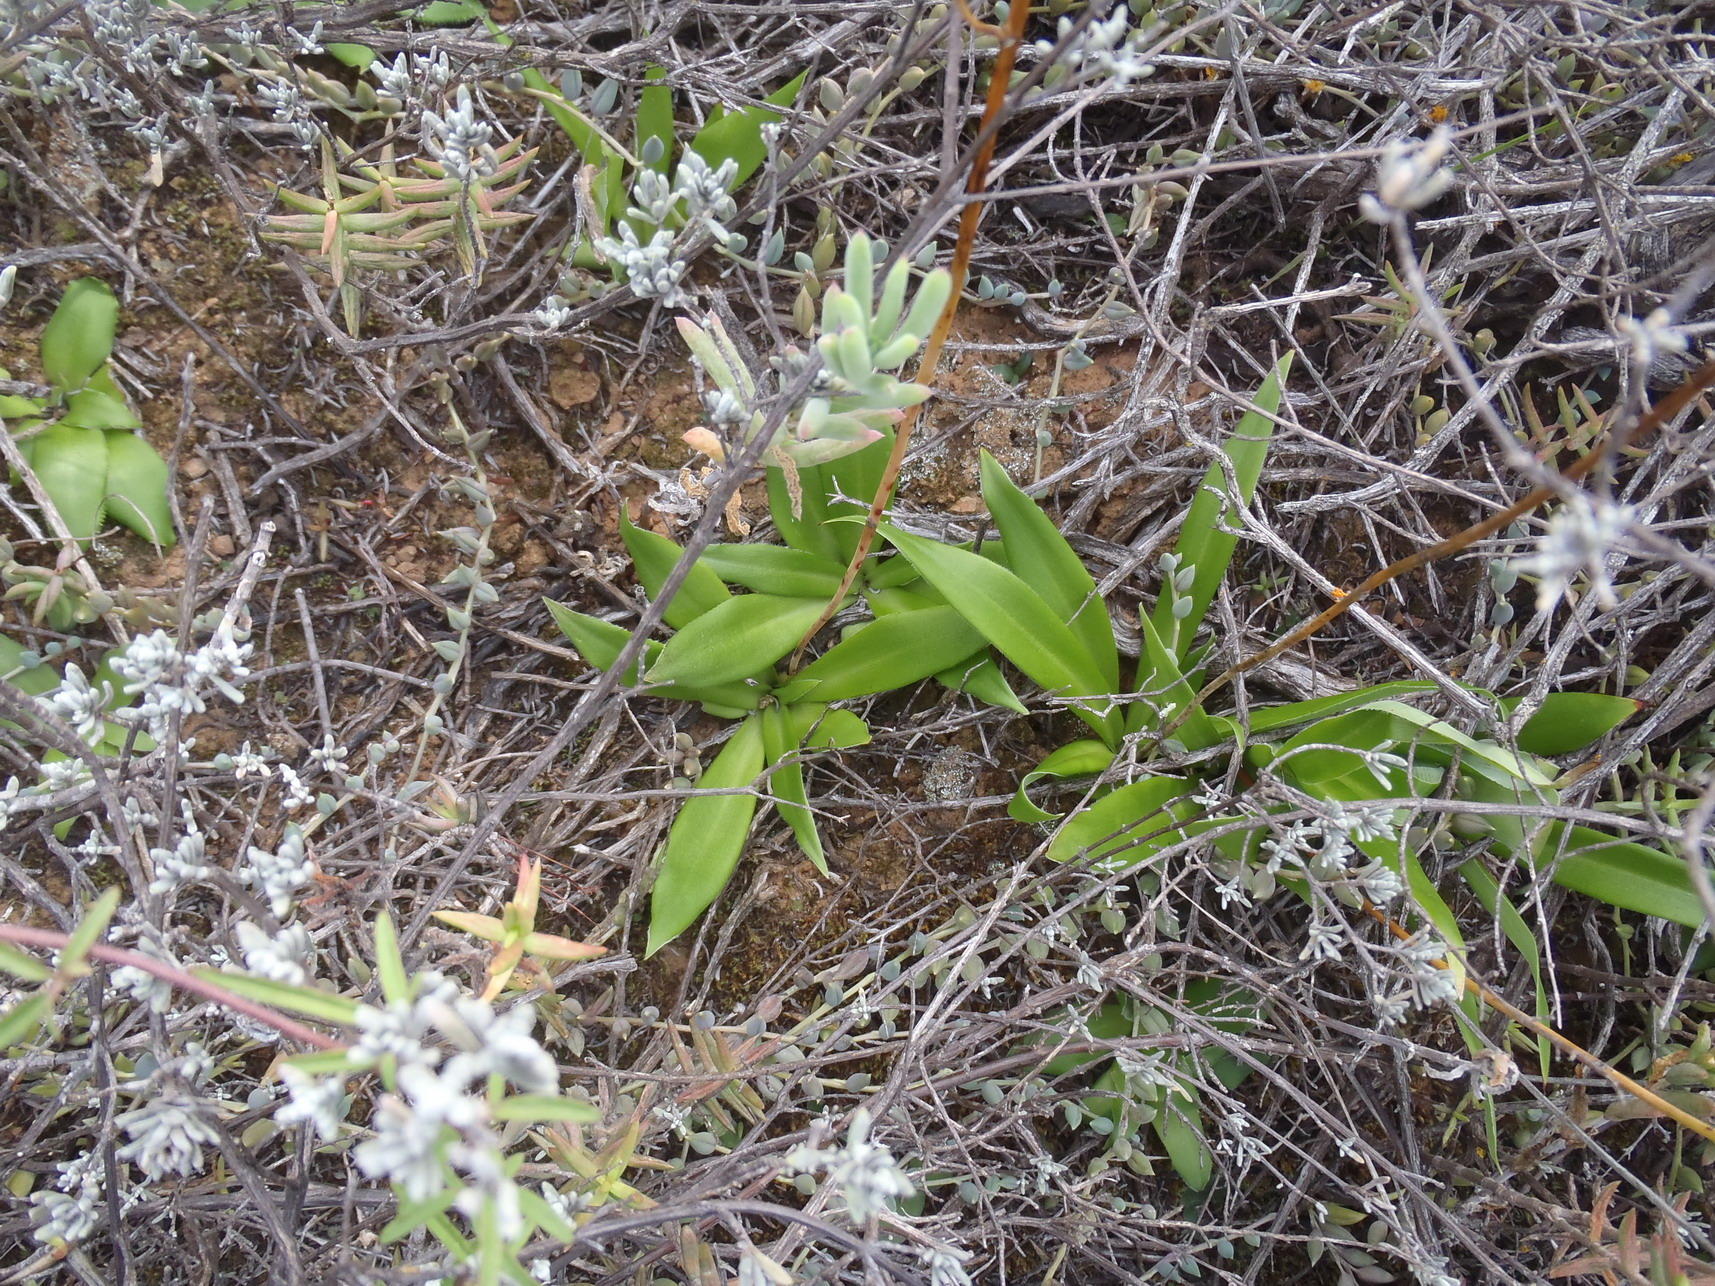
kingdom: Plantae
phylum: Tracheophyta
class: Liliopsida
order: Asparagales
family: Asparagaceae
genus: Chlorophytum
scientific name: Chlorophytum crispum
